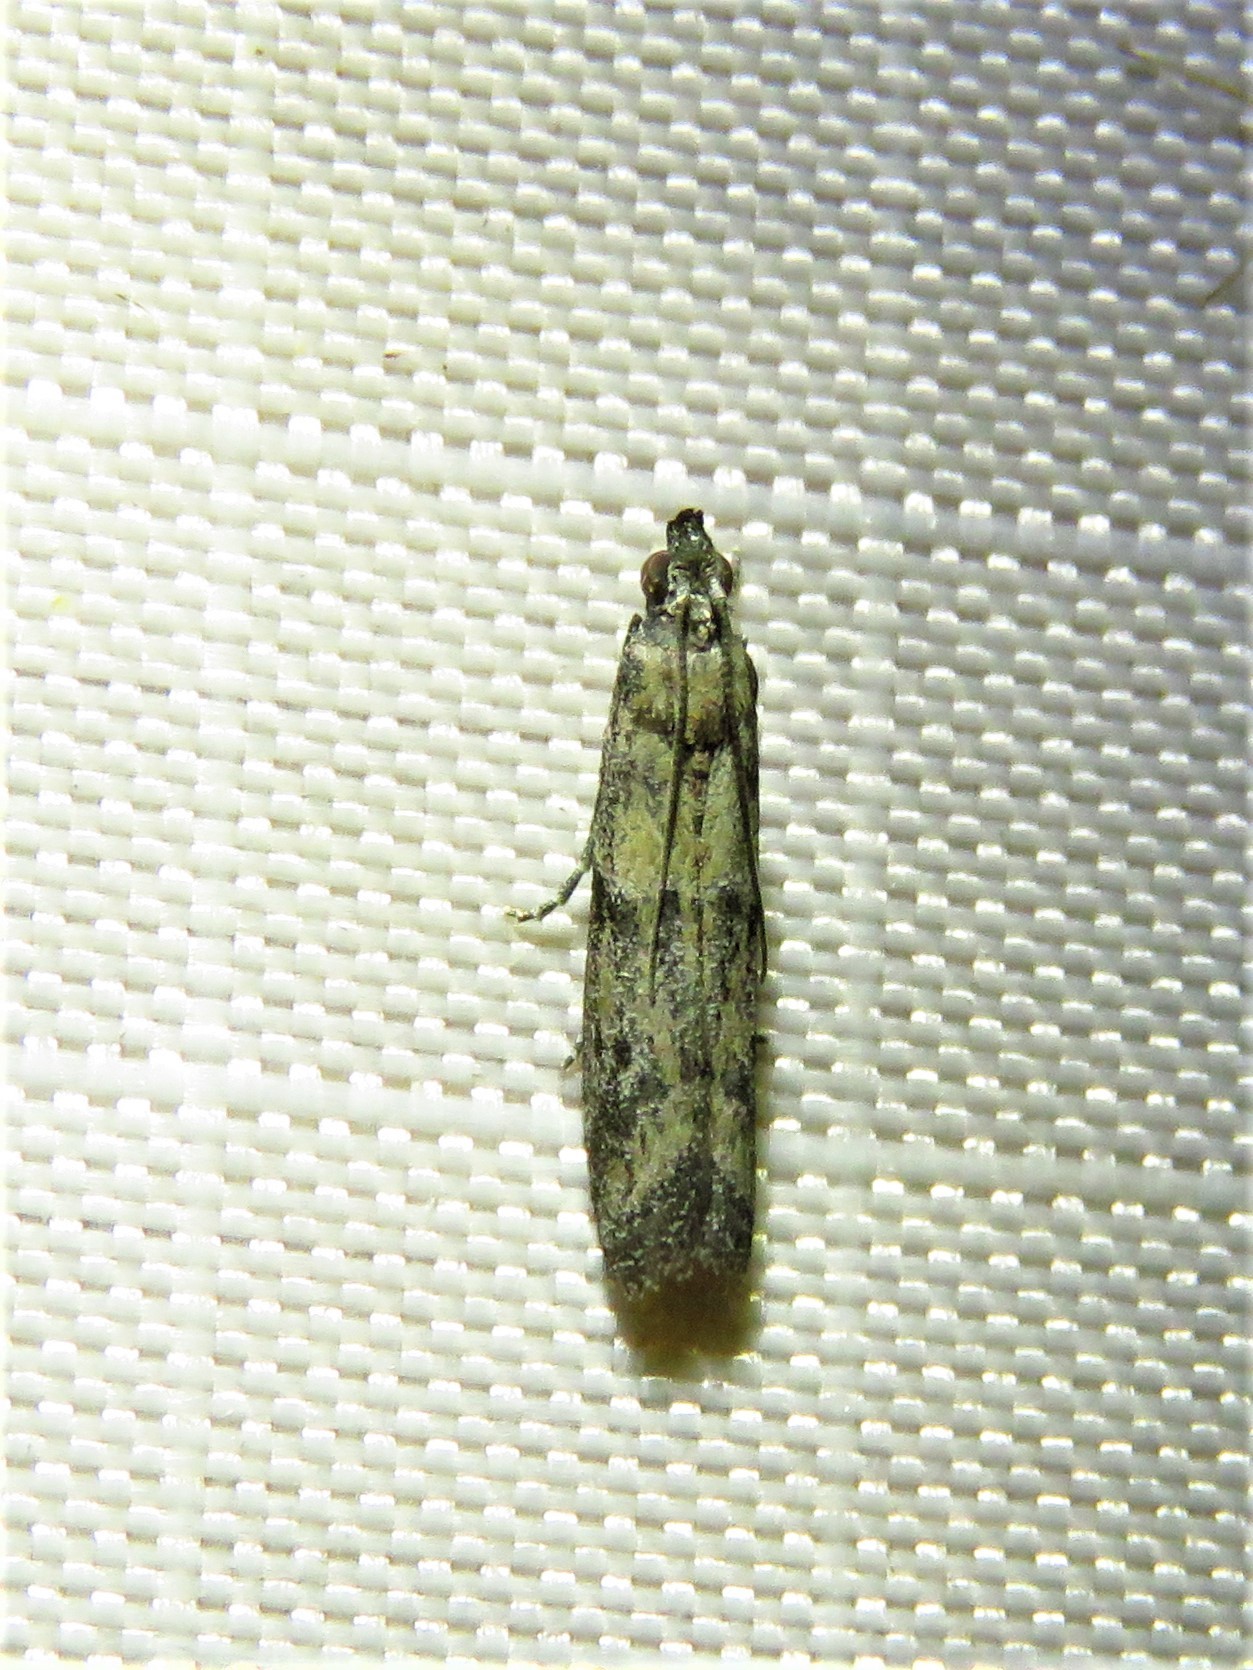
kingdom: Animalia
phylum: Arthropoda
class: Insecta
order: Lepidoptera
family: Pyralidae
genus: Ephestiodes
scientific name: Ephestiodes gilvescentella
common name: Moth
